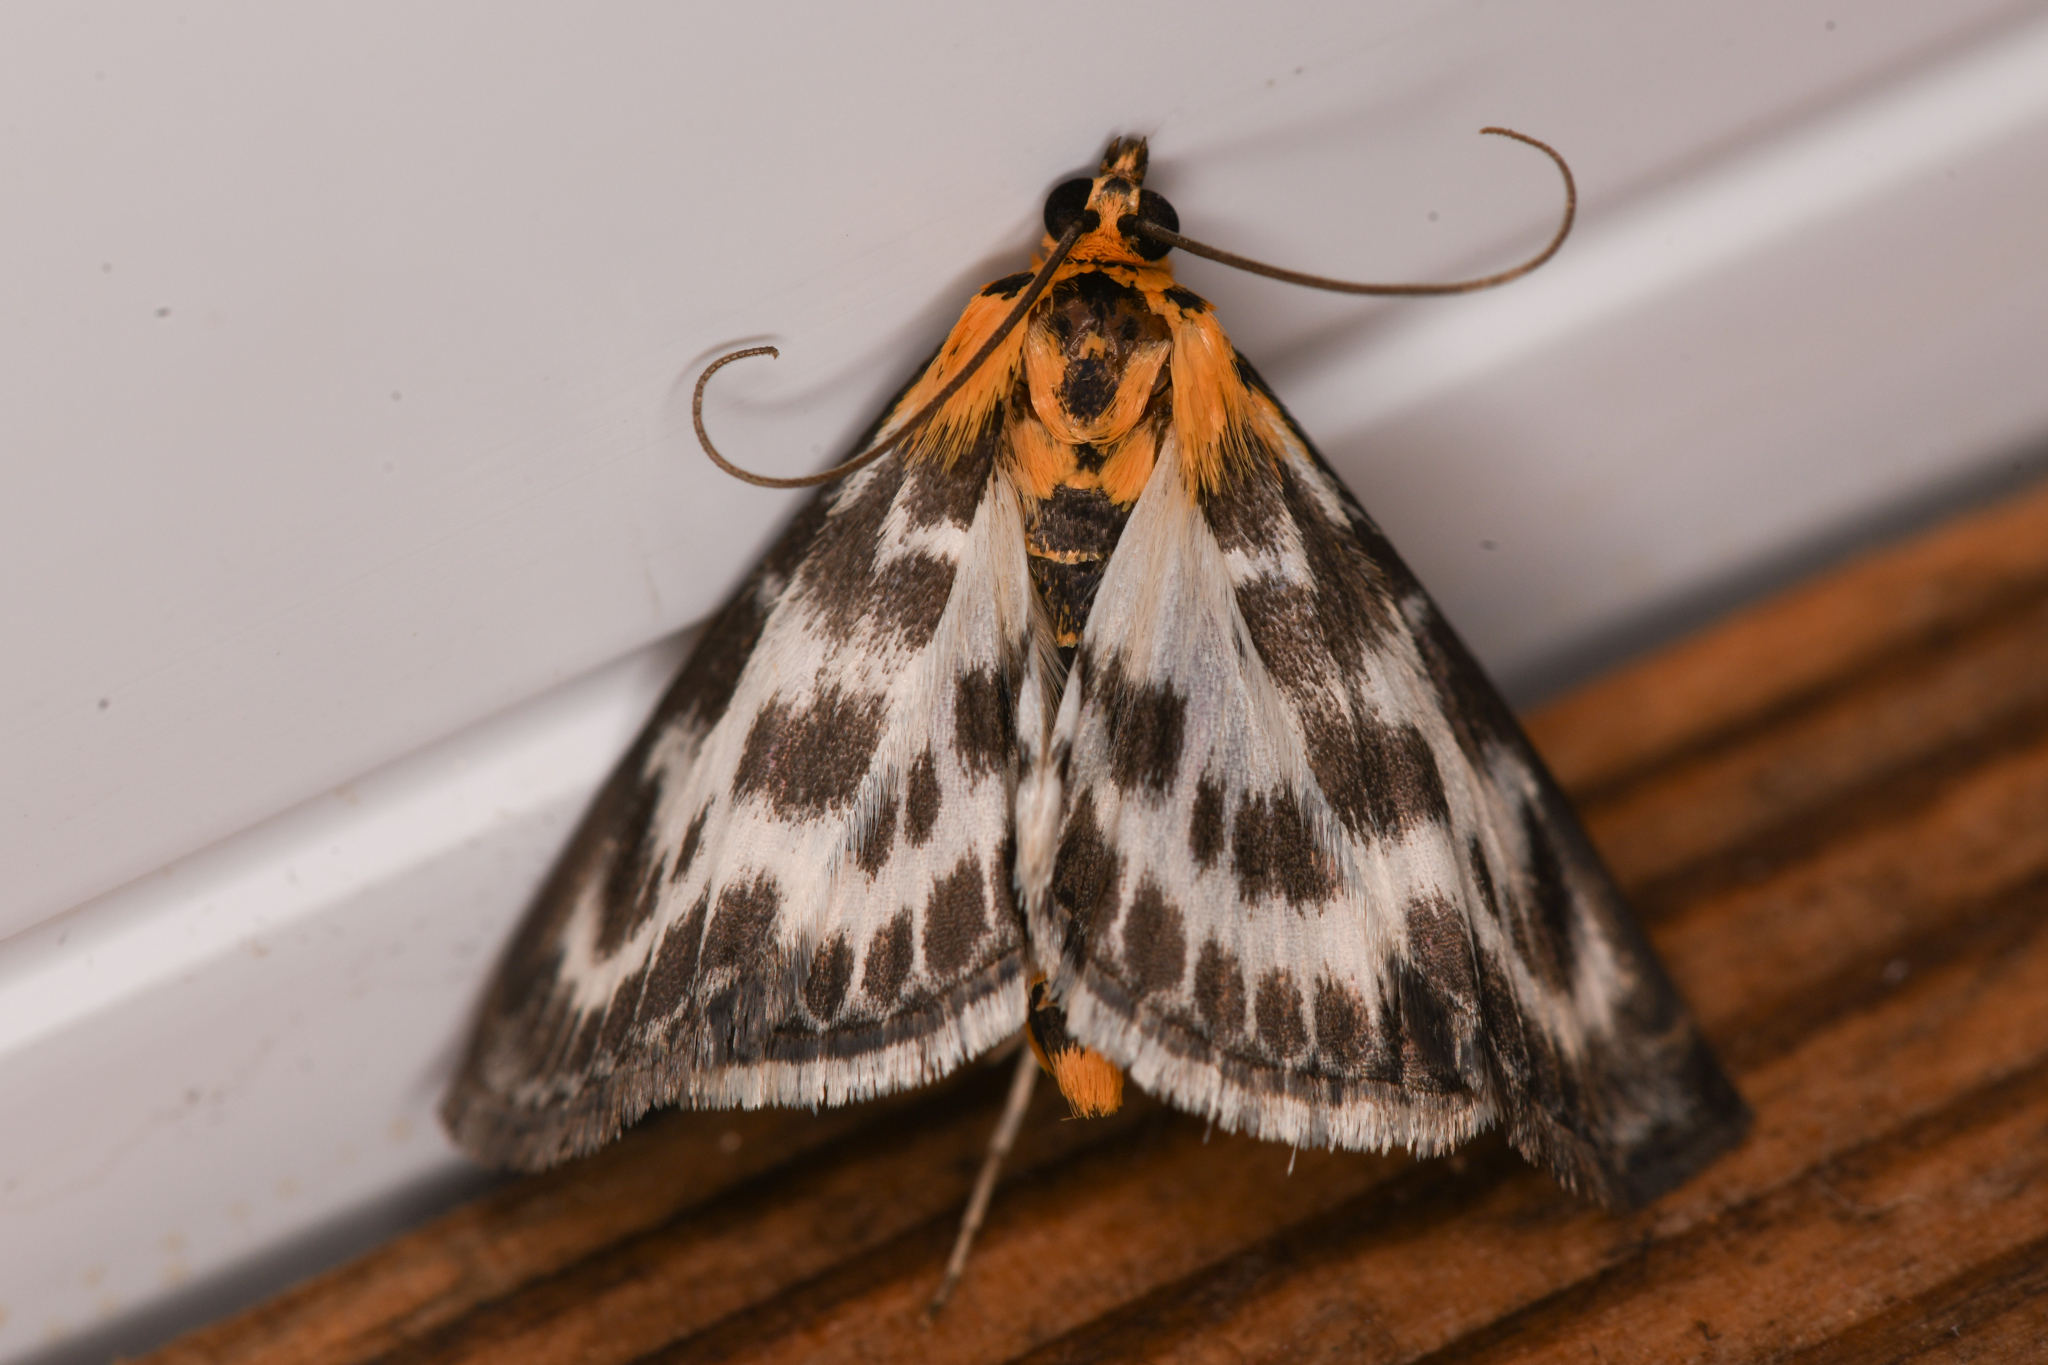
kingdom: Animalia
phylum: Arthropoda
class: Insecta
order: Lepidoptera
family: Crambidae
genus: Anania
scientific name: Anania hortulata
